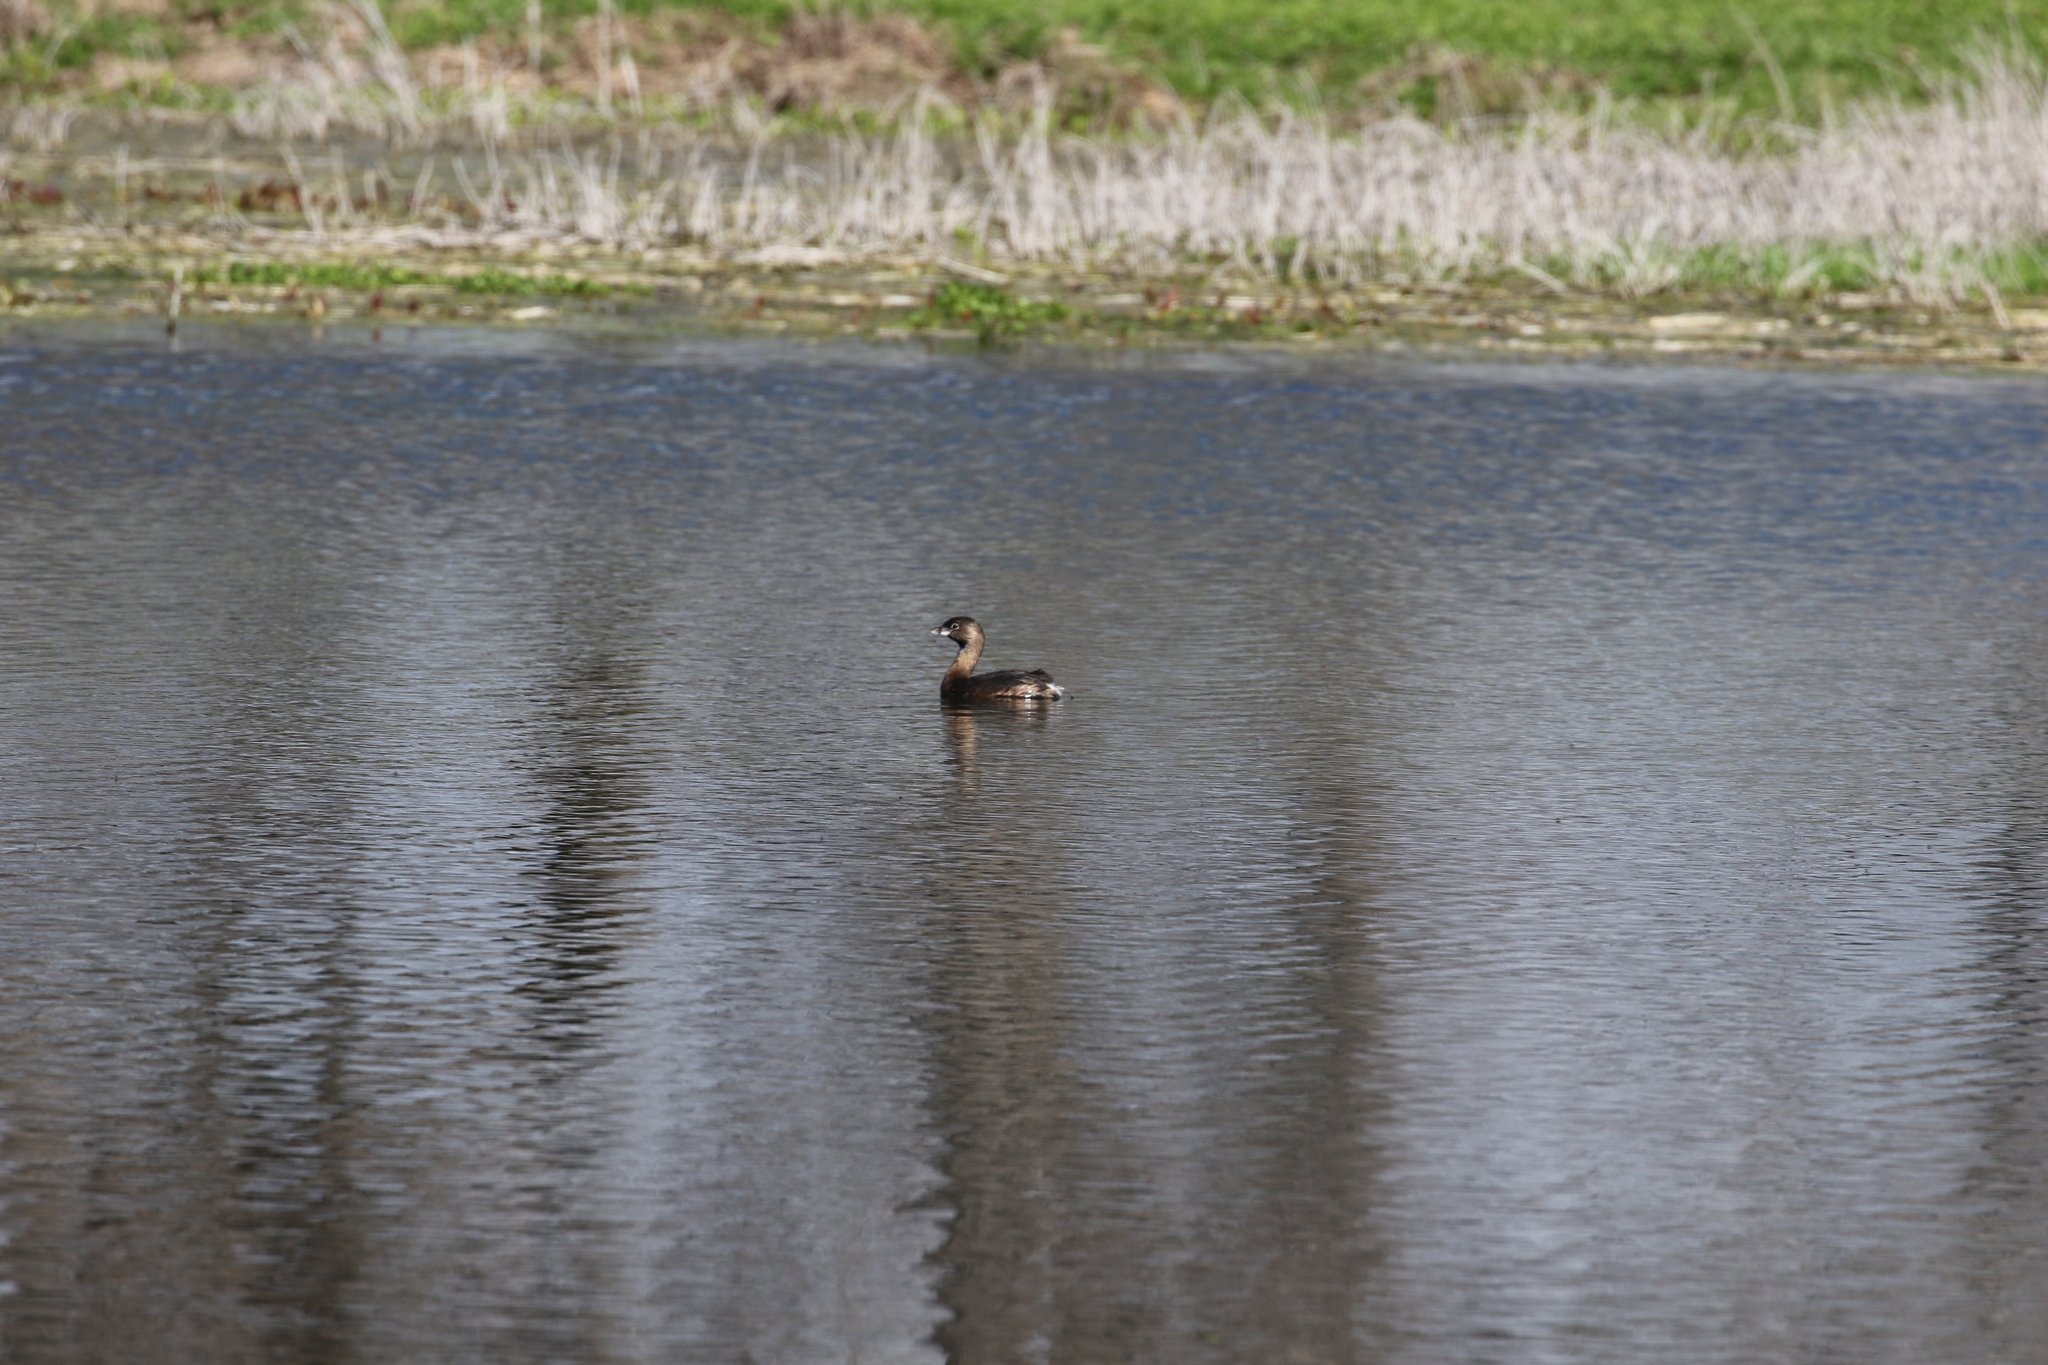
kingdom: Animalia
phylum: Chordata
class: Aves
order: Podicipediformes
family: Podicipedidae
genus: Podilymbus
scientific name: Podilymbus podiceps
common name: Pied-billed grebe
